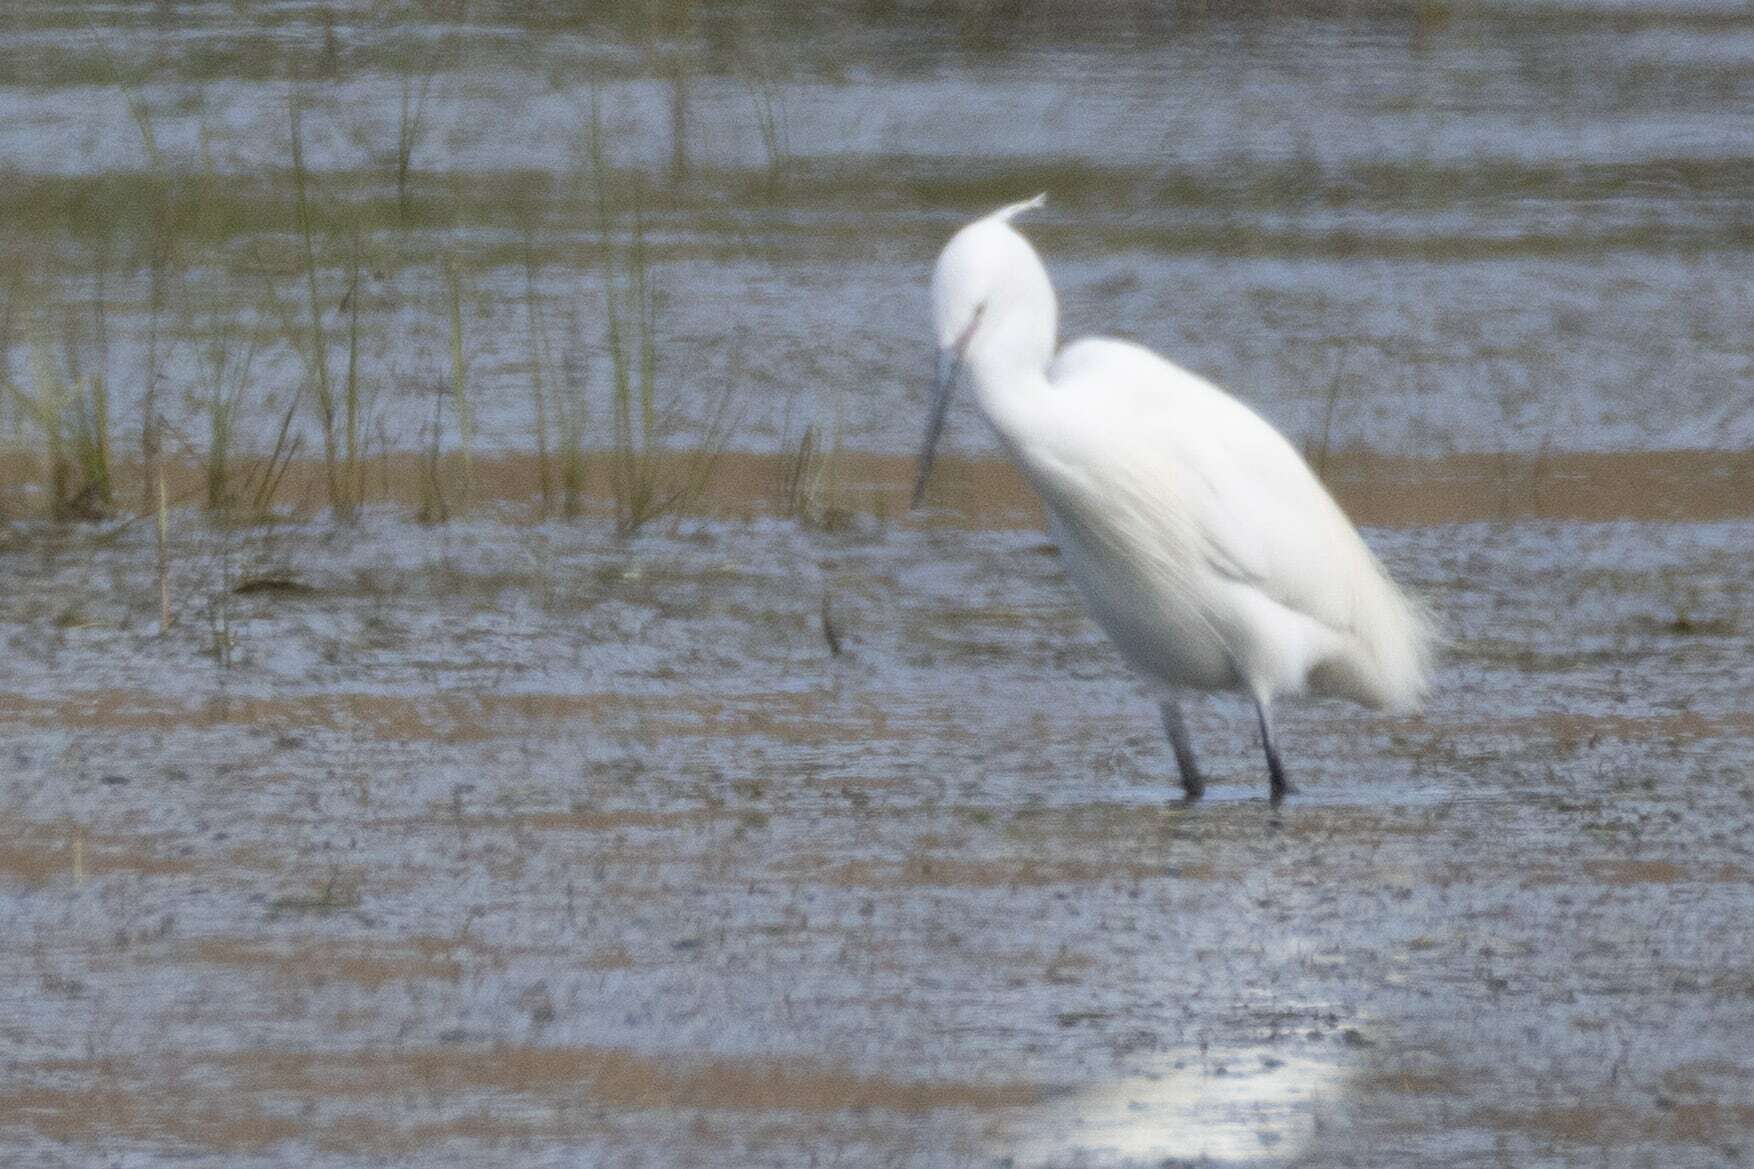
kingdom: Animalia
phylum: Chordata
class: Aves
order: Pelecaniformes
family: Ardeidae
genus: Egretta
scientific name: Egretta garzetta
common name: Little egret
